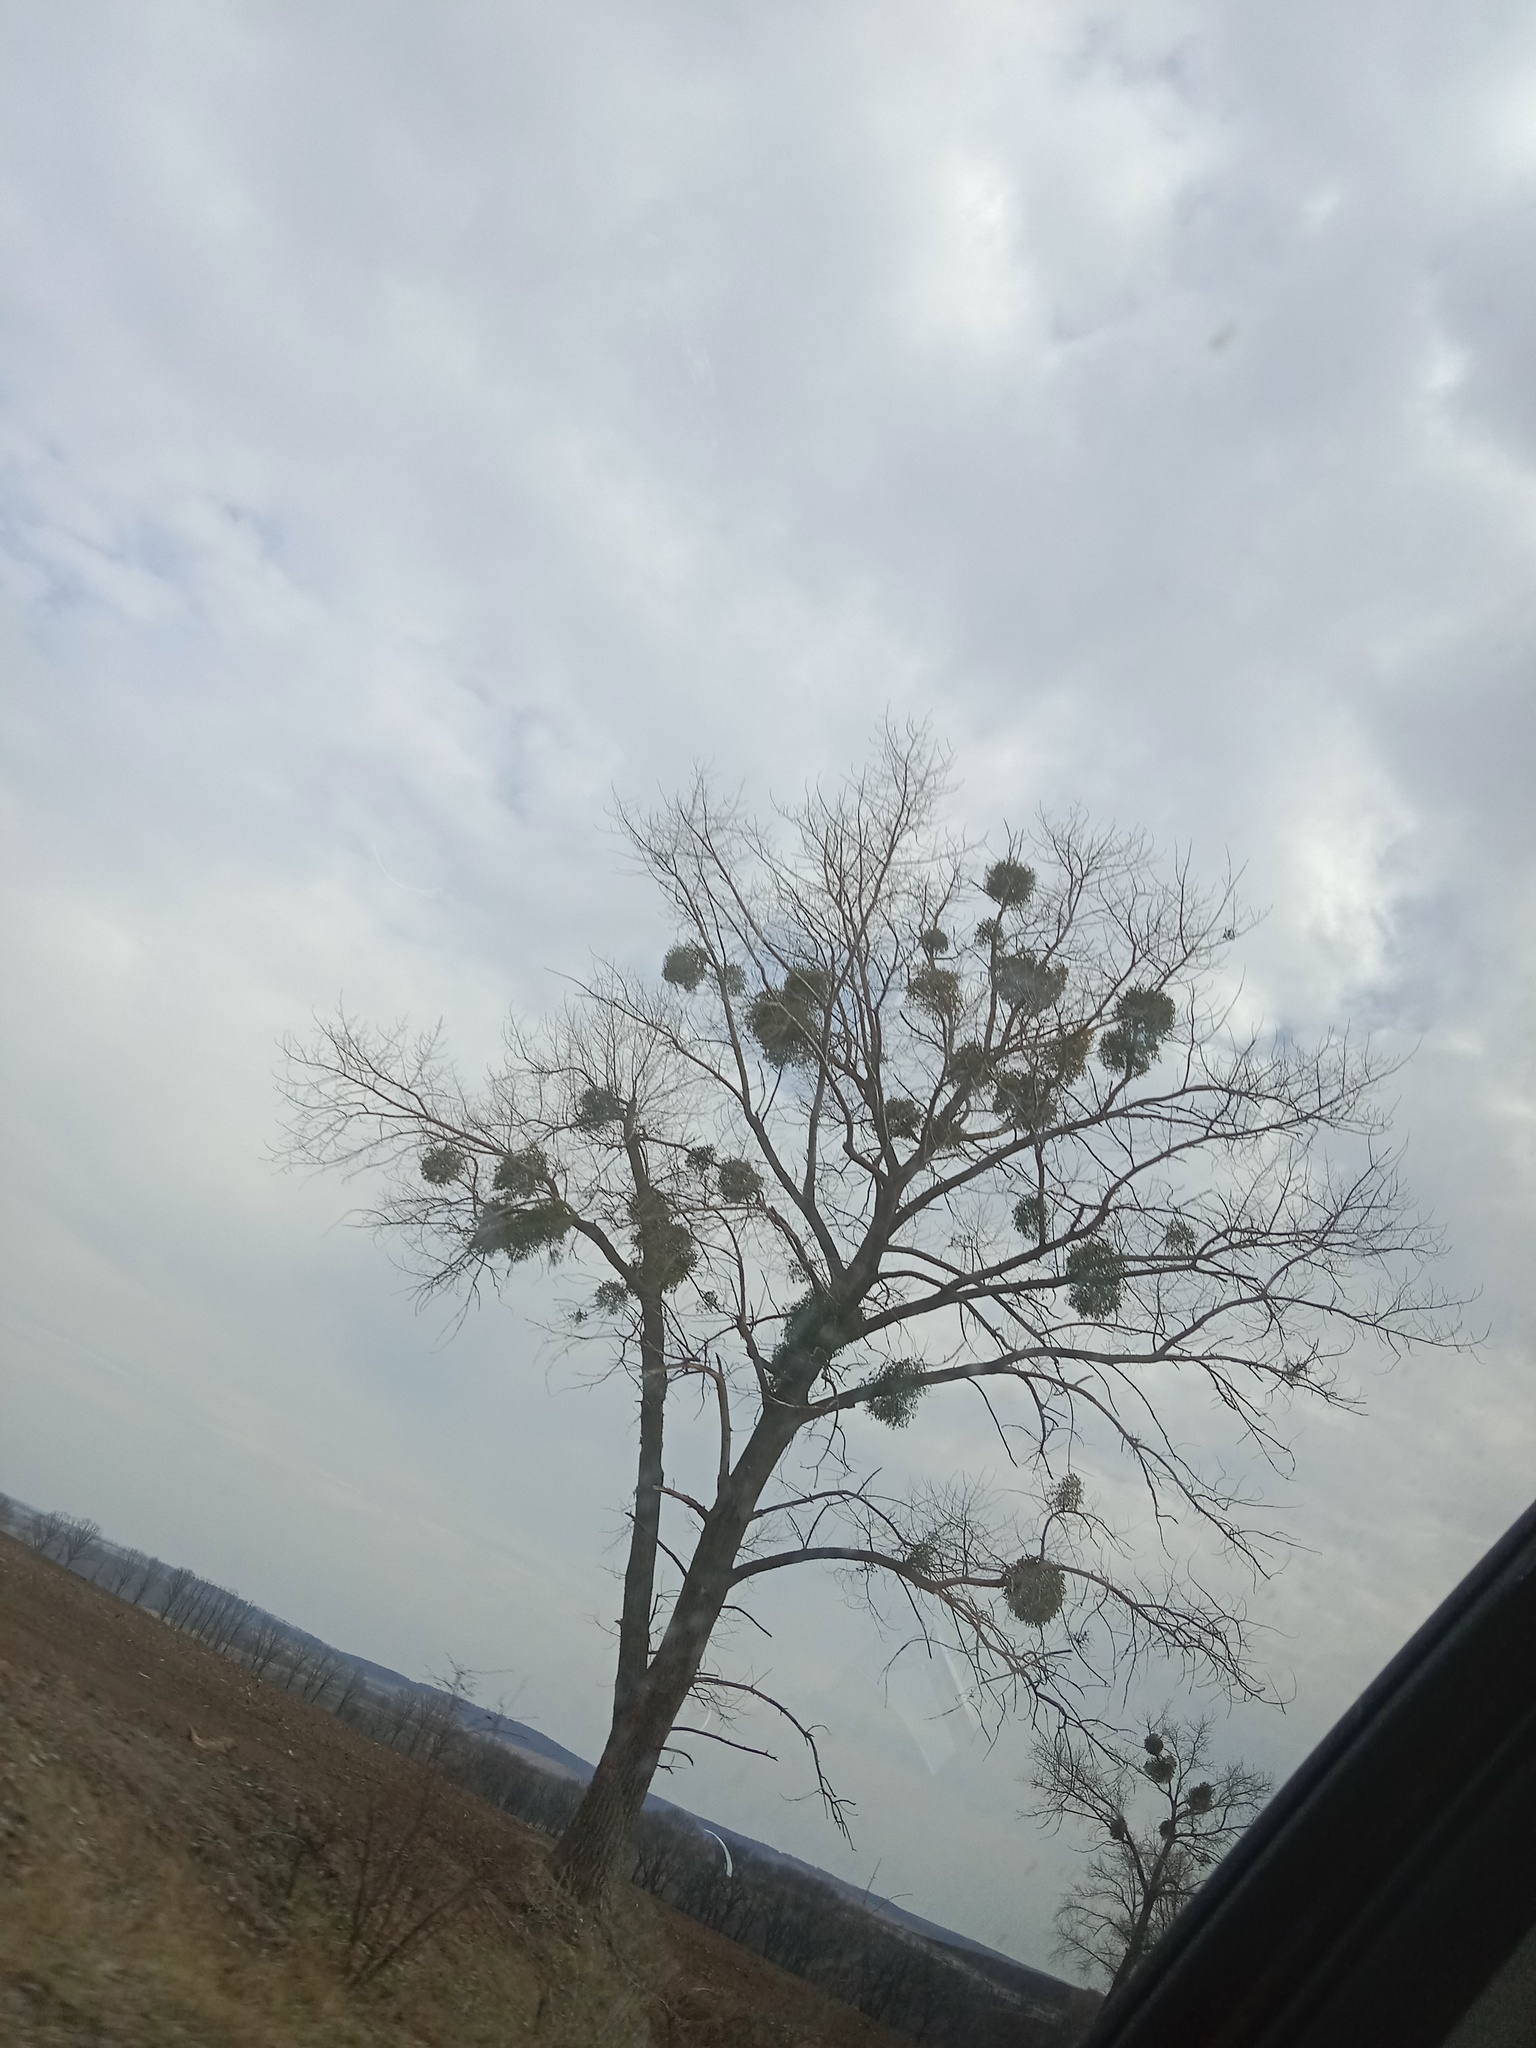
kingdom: Plantae
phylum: Tracheophyta
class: Magnoliopsida
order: Santalales
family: Viscaceae
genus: Viscum
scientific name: Viscum album
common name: Mistletoe
